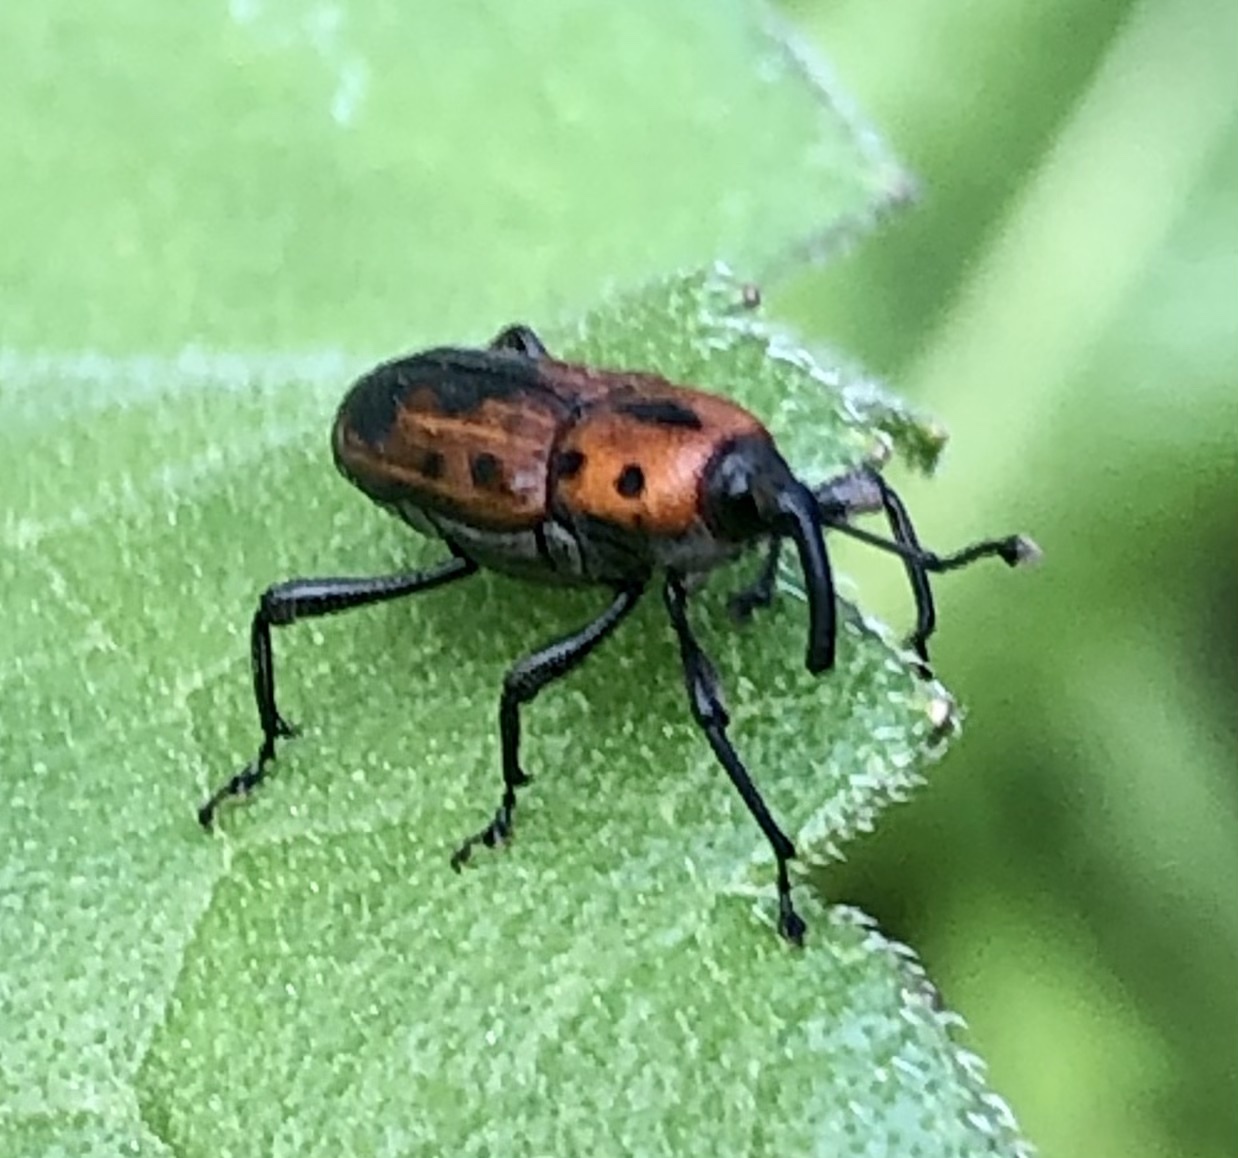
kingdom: Animalia
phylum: Arthropoda
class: Insecta
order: Coleoptera
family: Dryophthoridae
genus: Rhodobaenus
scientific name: Rhodobaenus quinquepunctatus
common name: Cocklebur weevil
